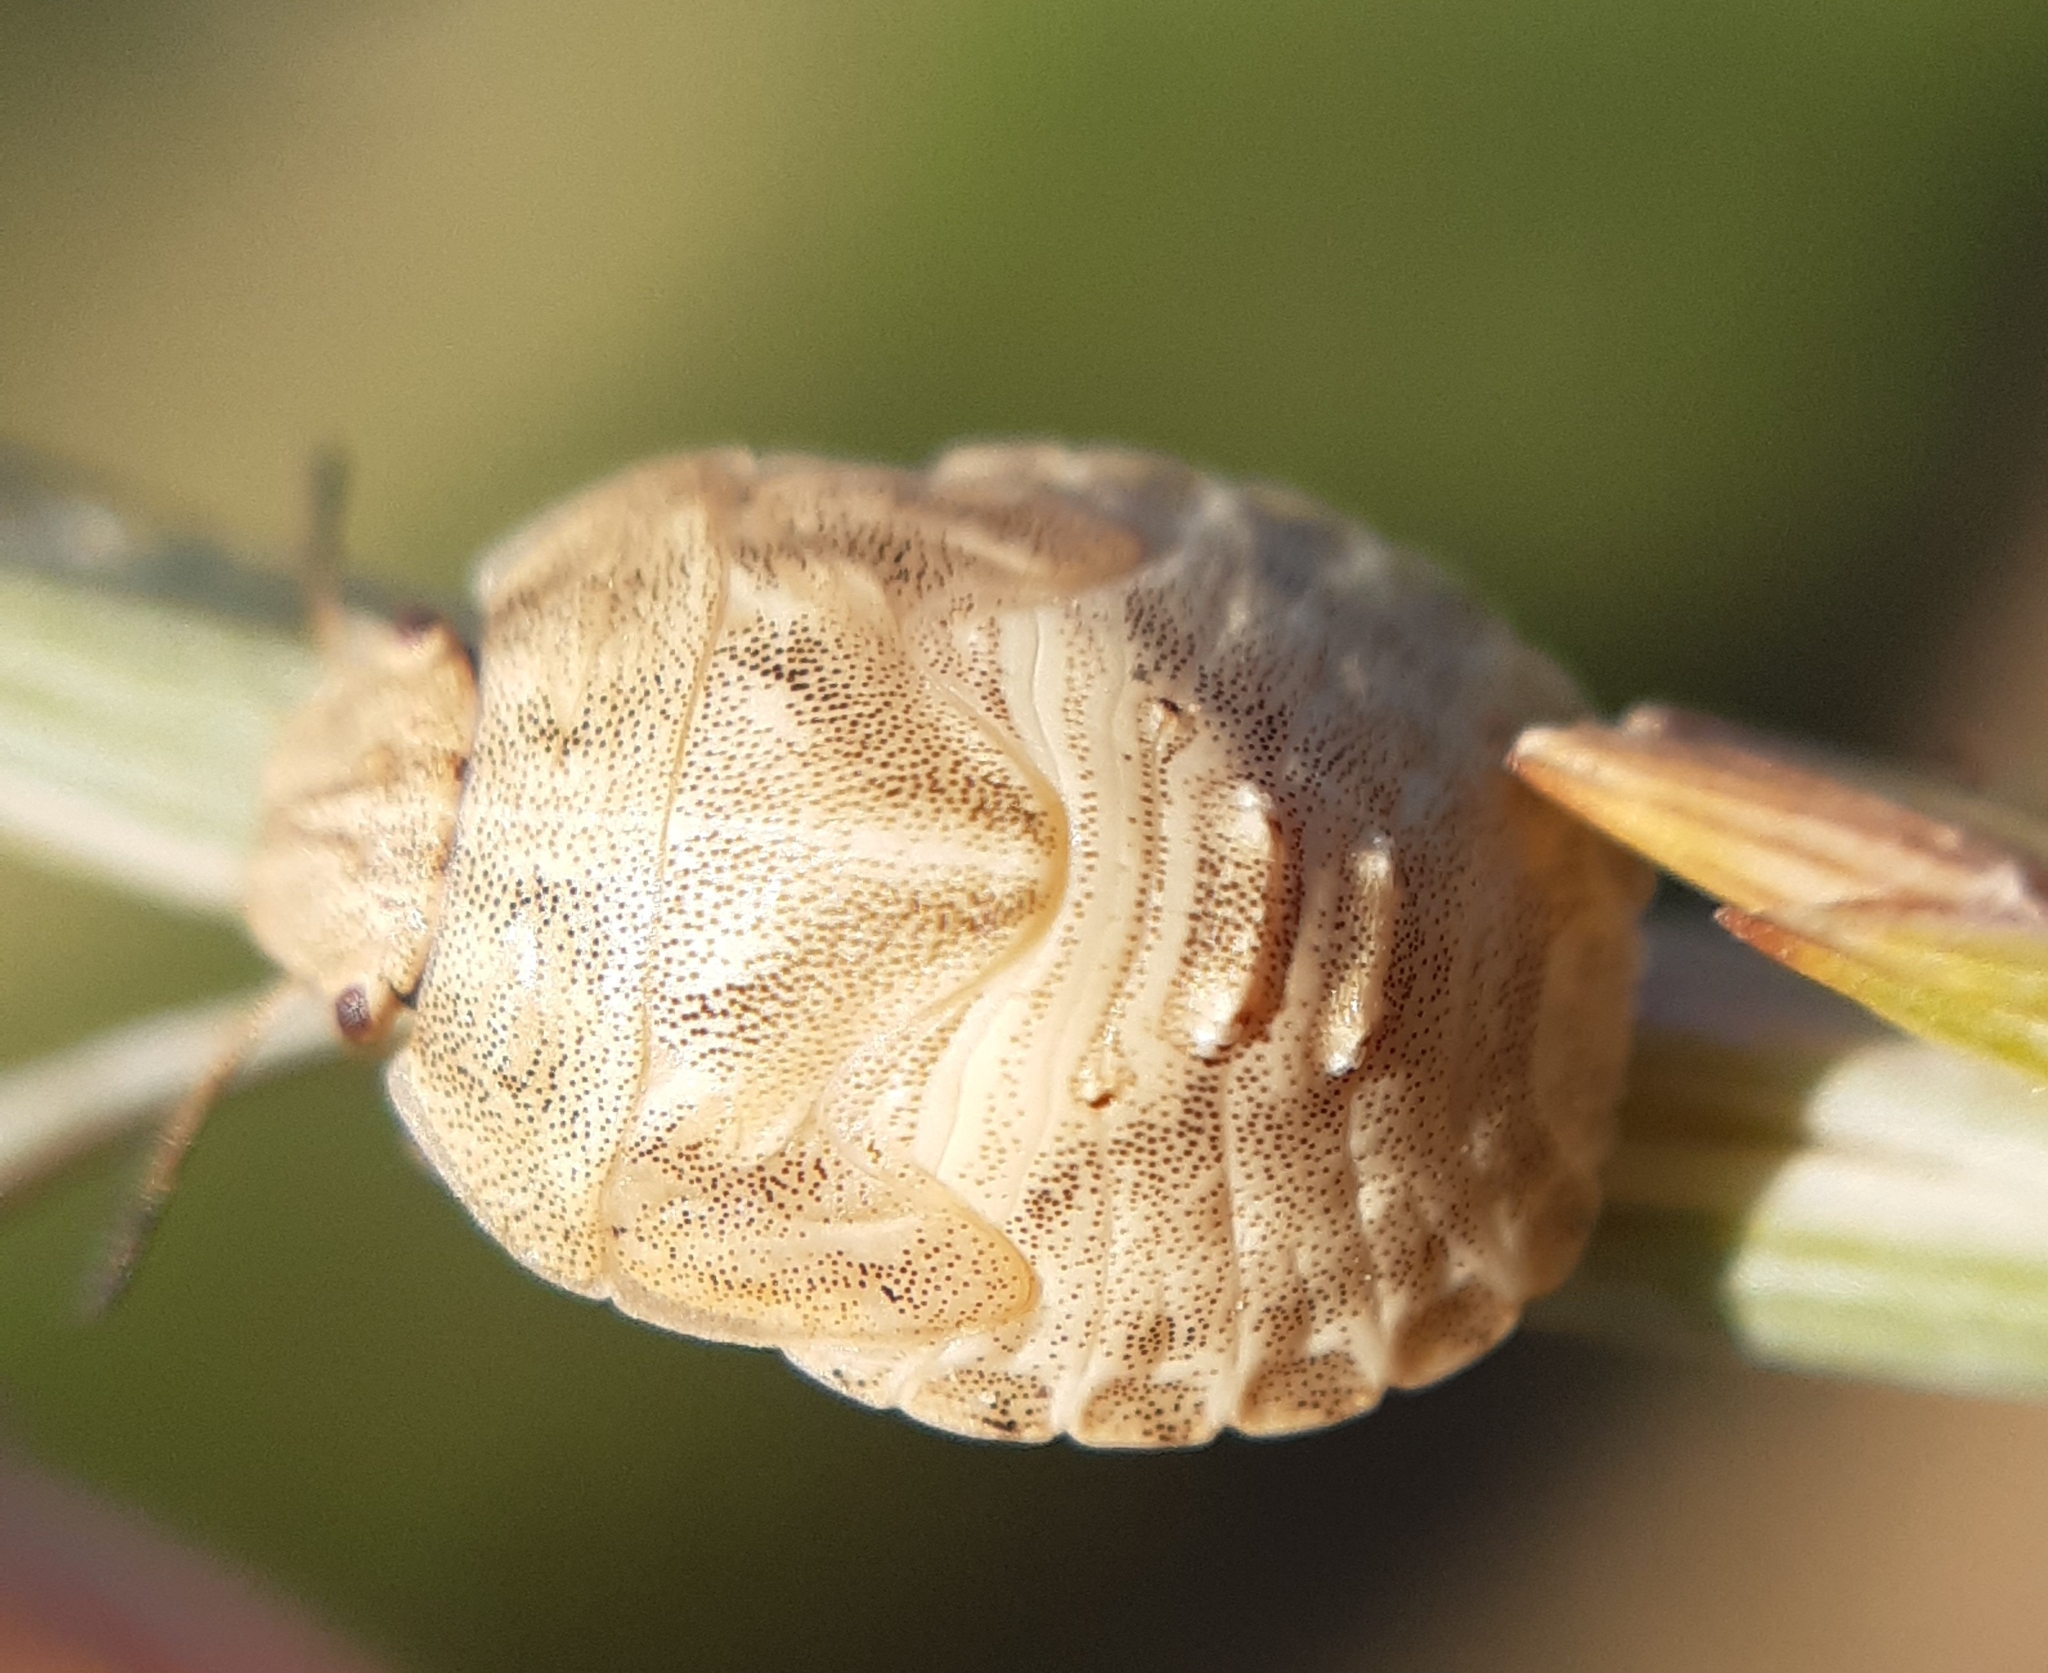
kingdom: Animalia
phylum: Arthropoda
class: Insecta
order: Hemiptera
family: Scutelleridae
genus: Eurygaster
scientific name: Eurygaster maura
